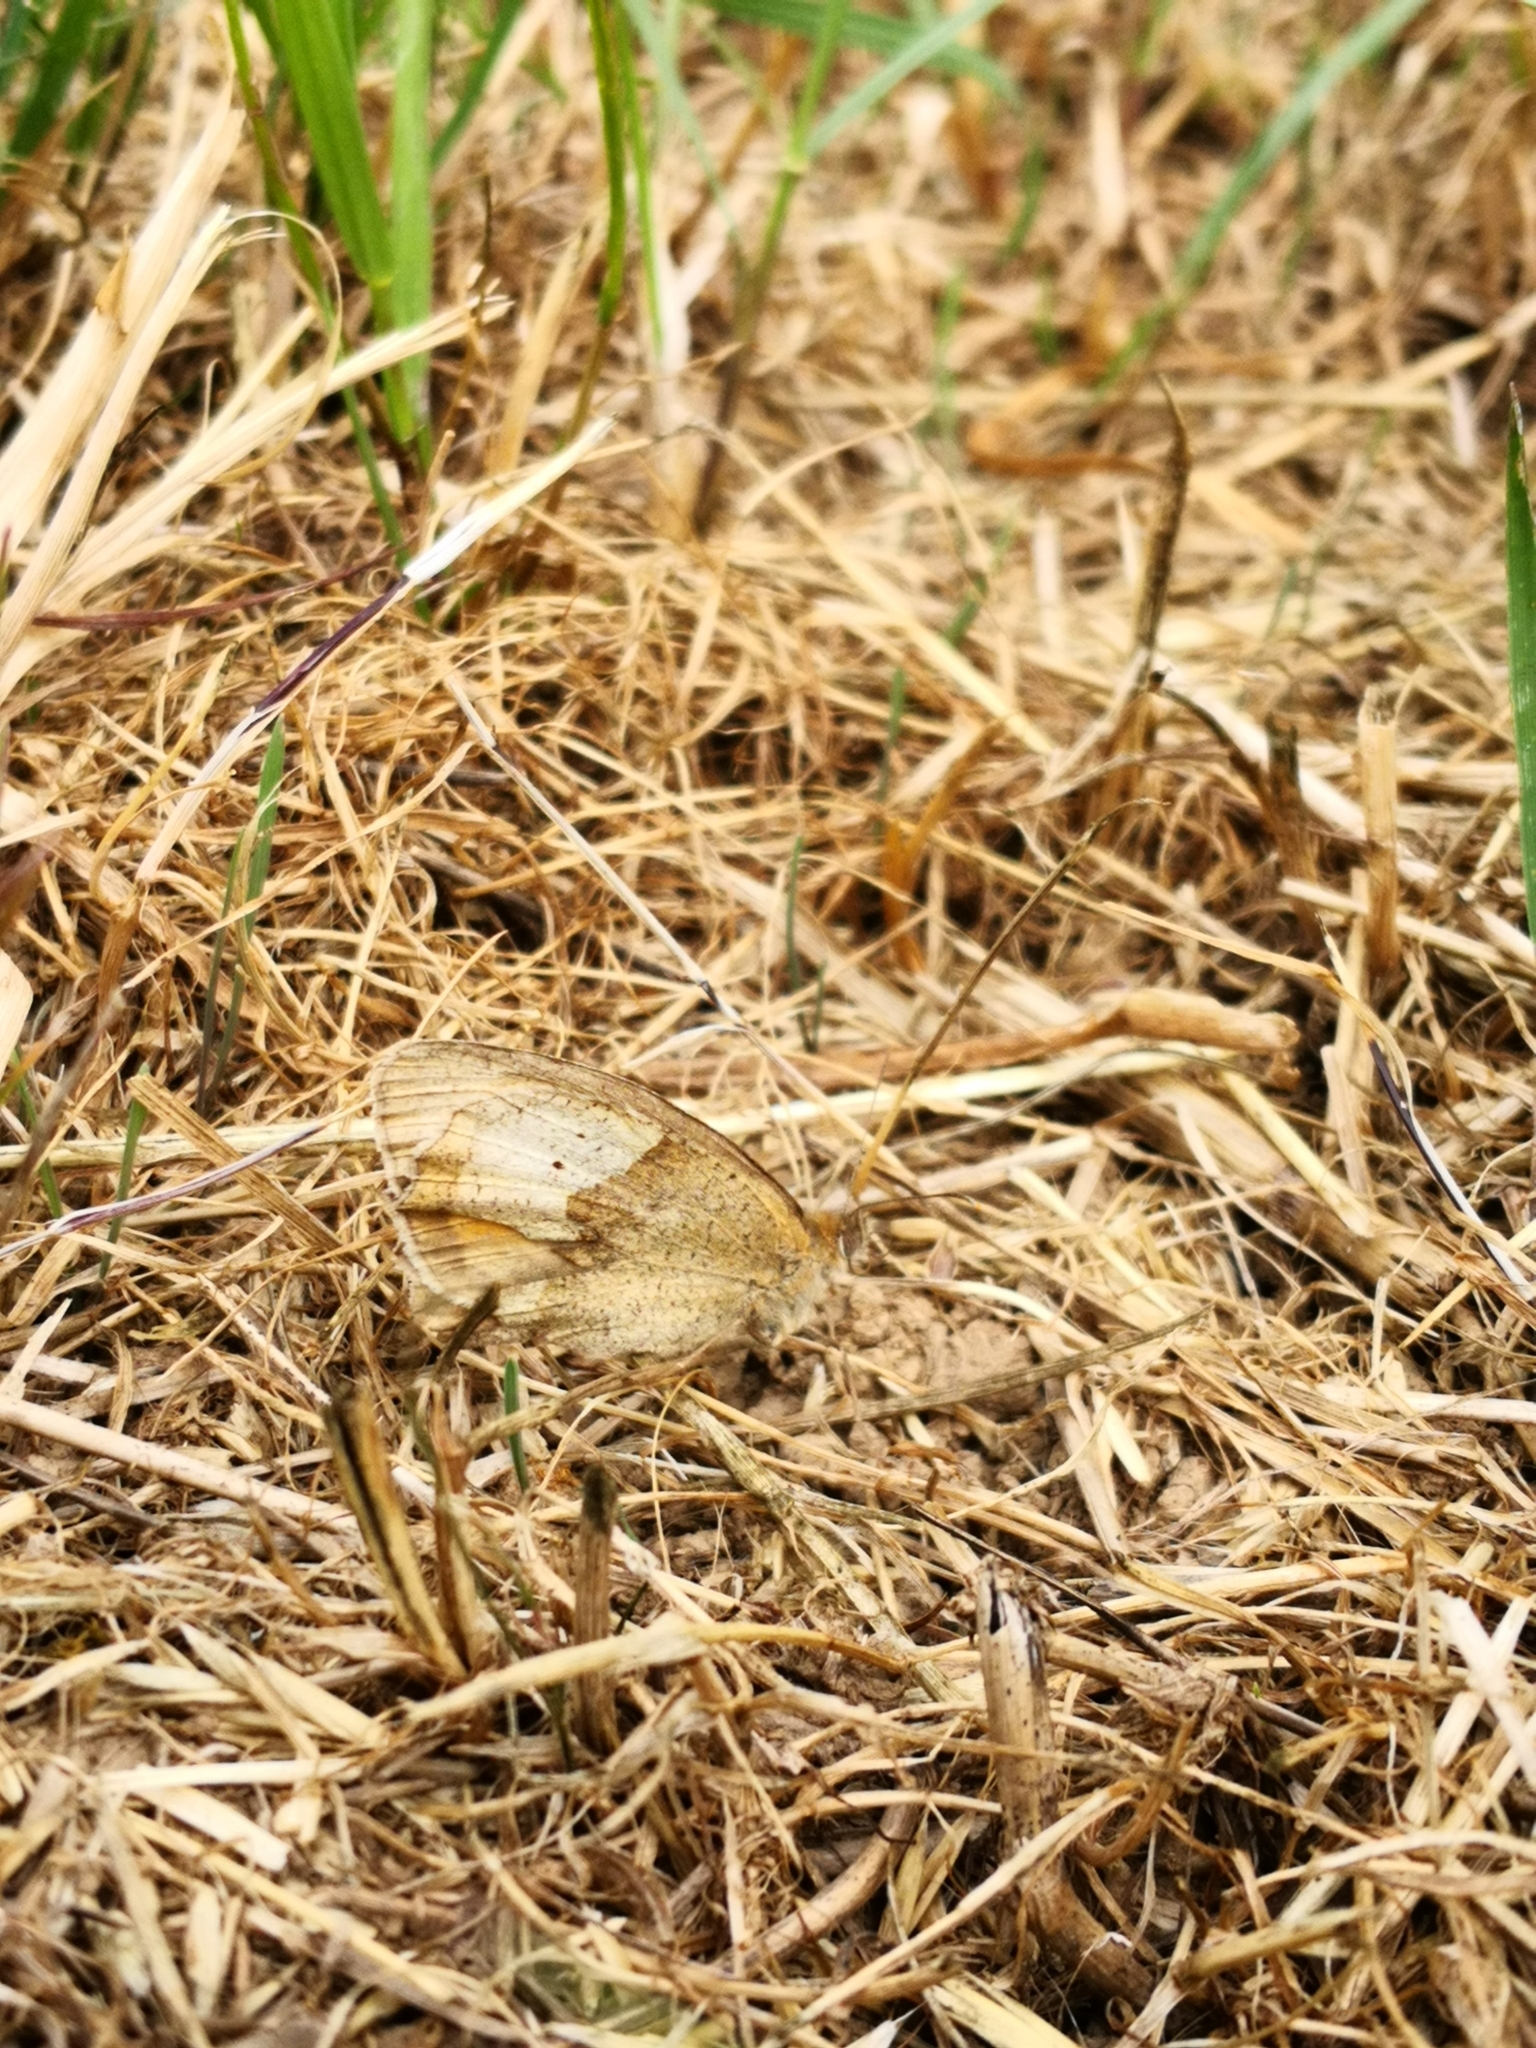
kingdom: Animalia
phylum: Arthropoda
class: Insecta
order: Lepidoptera
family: Nymphalidae
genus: Maniola
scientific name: Maniola jurtina
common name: Meadow brown
